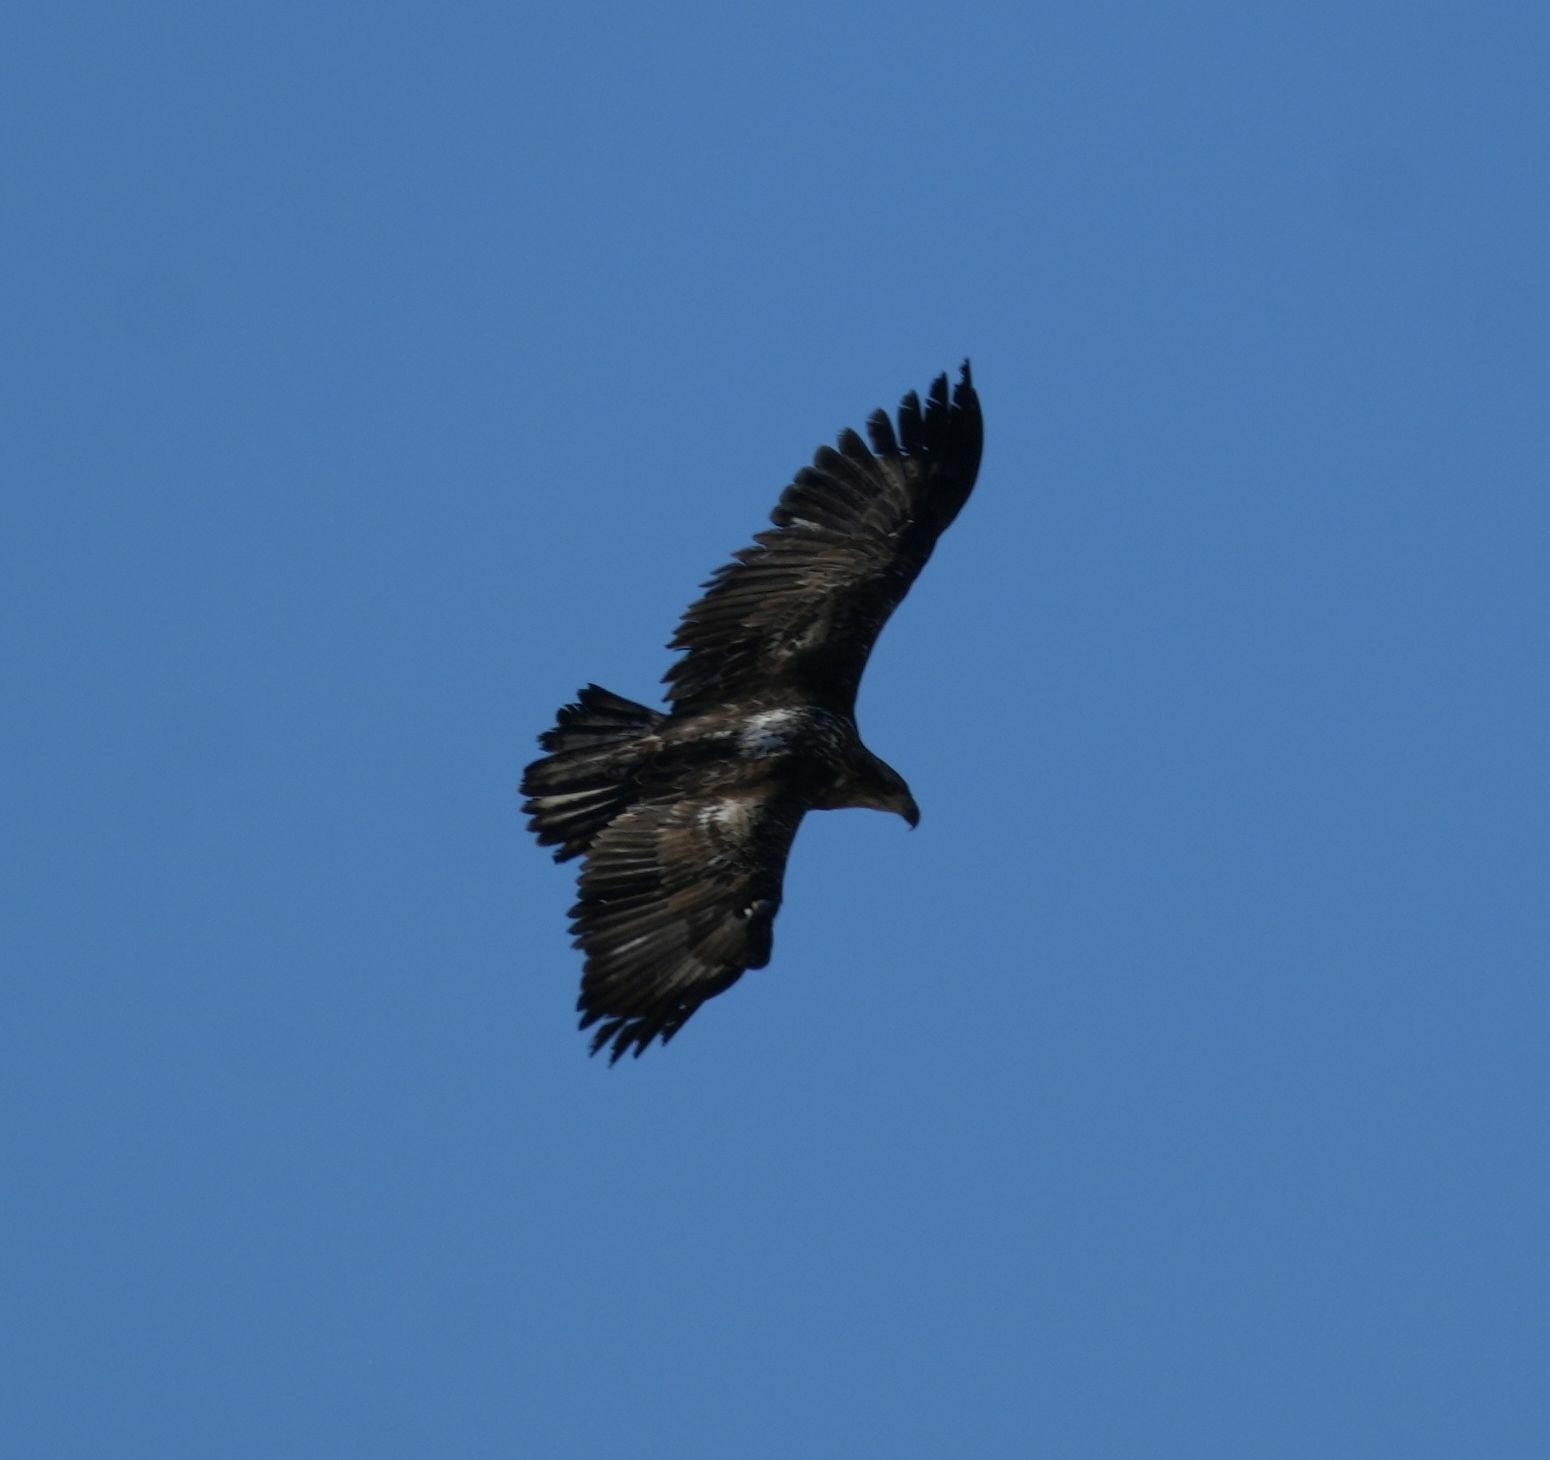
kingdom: Animalia
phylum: Chordata
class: Aves
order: Accipitriformes
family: Accipitridae
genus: Haliaeetus
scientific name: Haliaeetus leucocephalus
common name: Bald eagle
